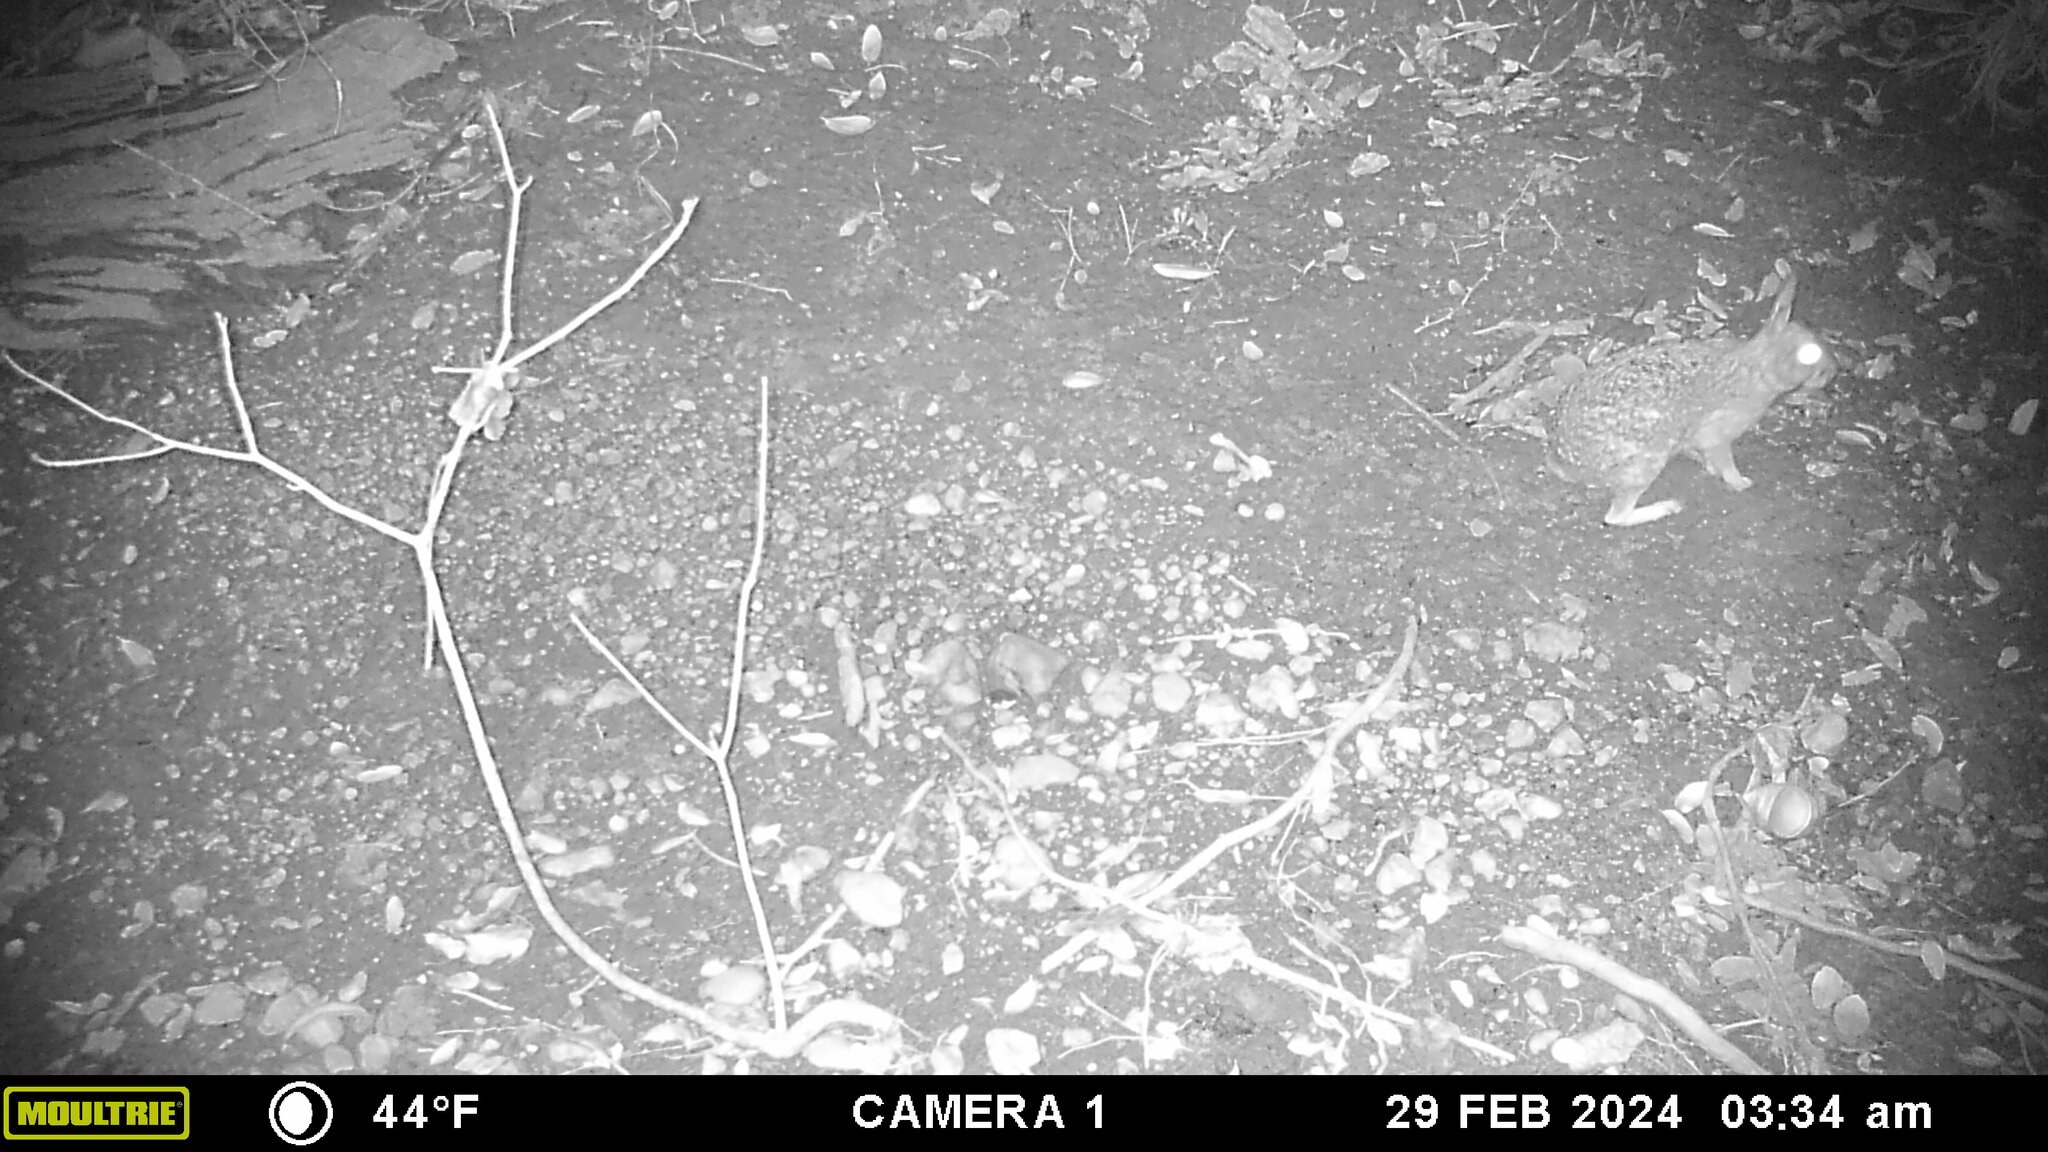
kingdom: Animalia
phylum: Chordata
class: Mammalia
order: Lagomorpha
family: Leporidae
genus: Sylvilagus
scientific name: Sylvilagus floridanus
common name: Eastern cottontail
